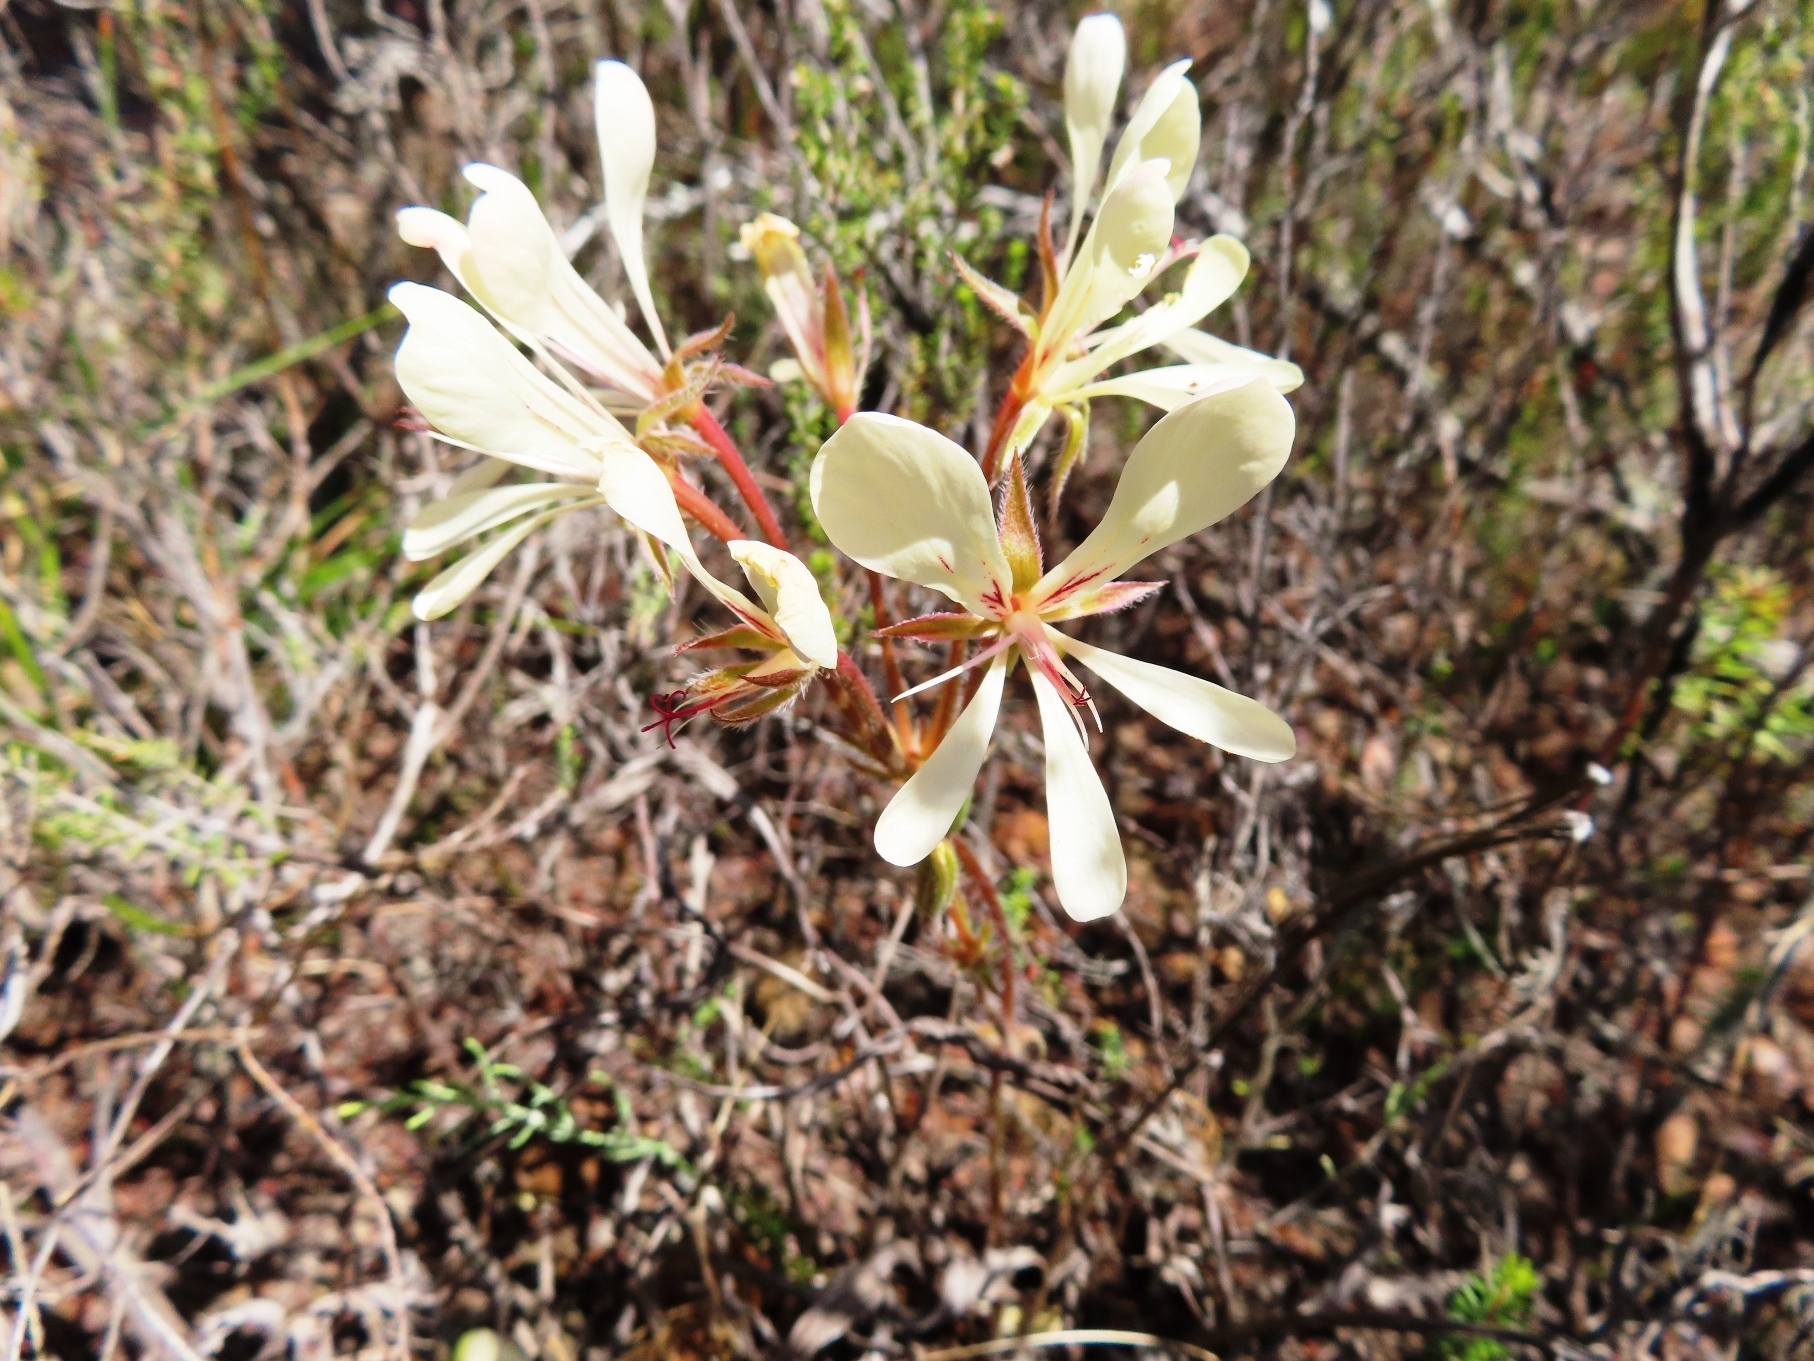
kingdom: Plantae
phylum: Tracheophyta
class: Magnoliopsida
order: Geraniales
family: Geraniaceae
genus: Pelargonium
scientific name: Pelargonium carneum
